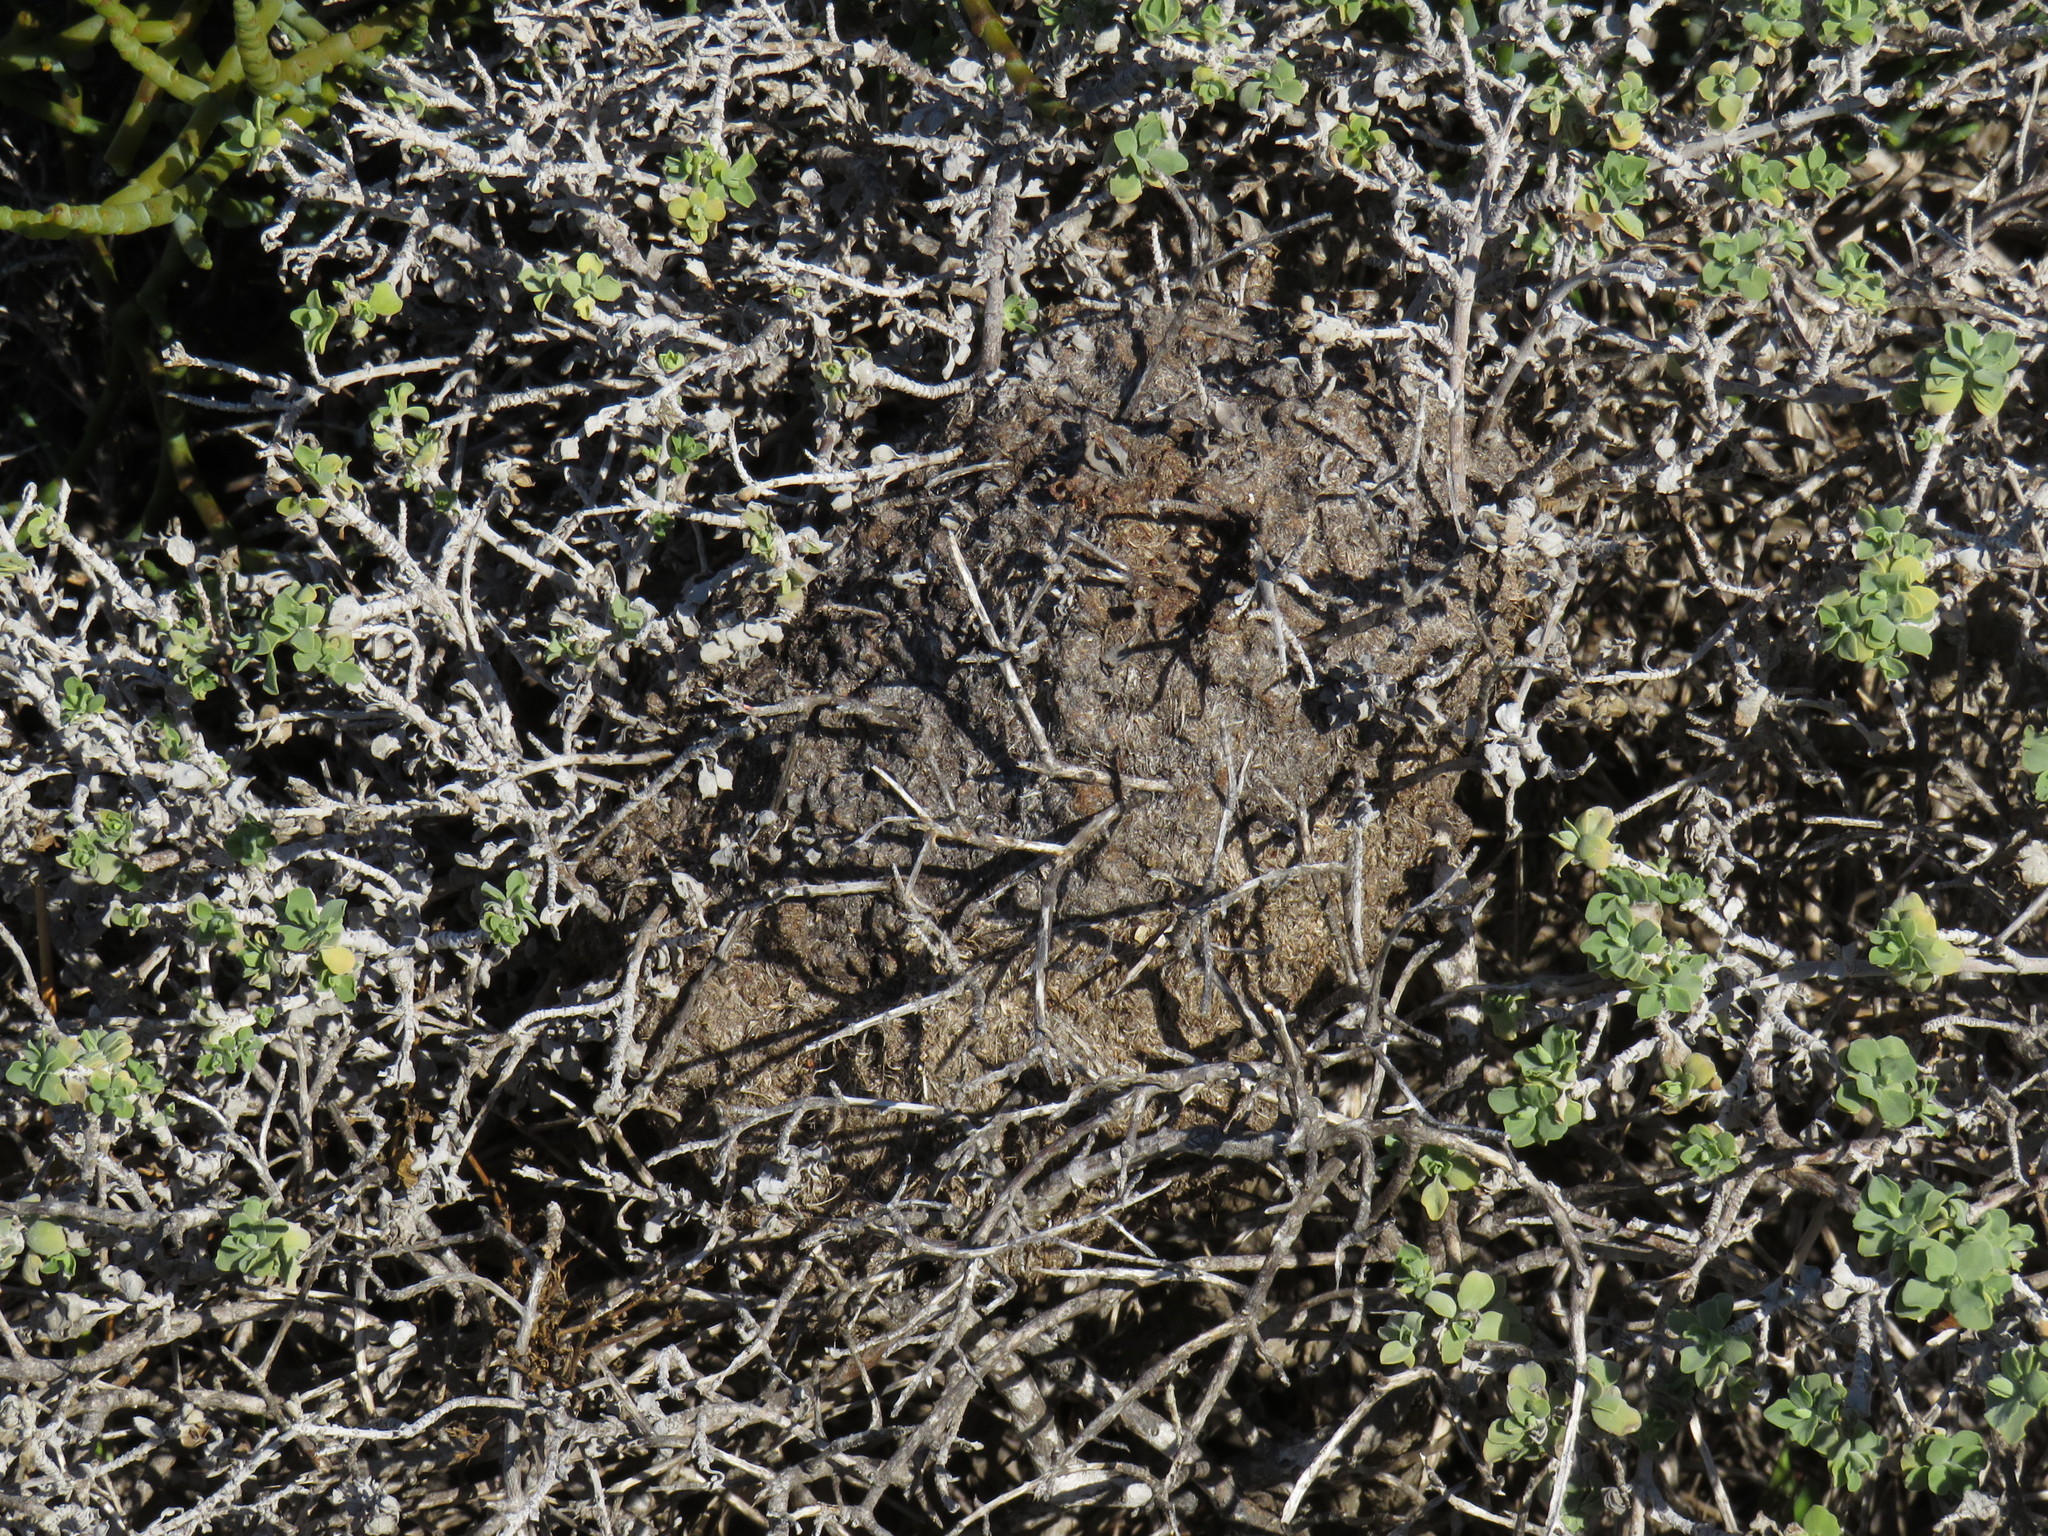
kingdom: Animalia
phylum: Arthropoda
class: Insecta
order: Hymenoptera
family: Formicidae
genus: Crematogaster
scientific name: Crematogaster peringueyi
